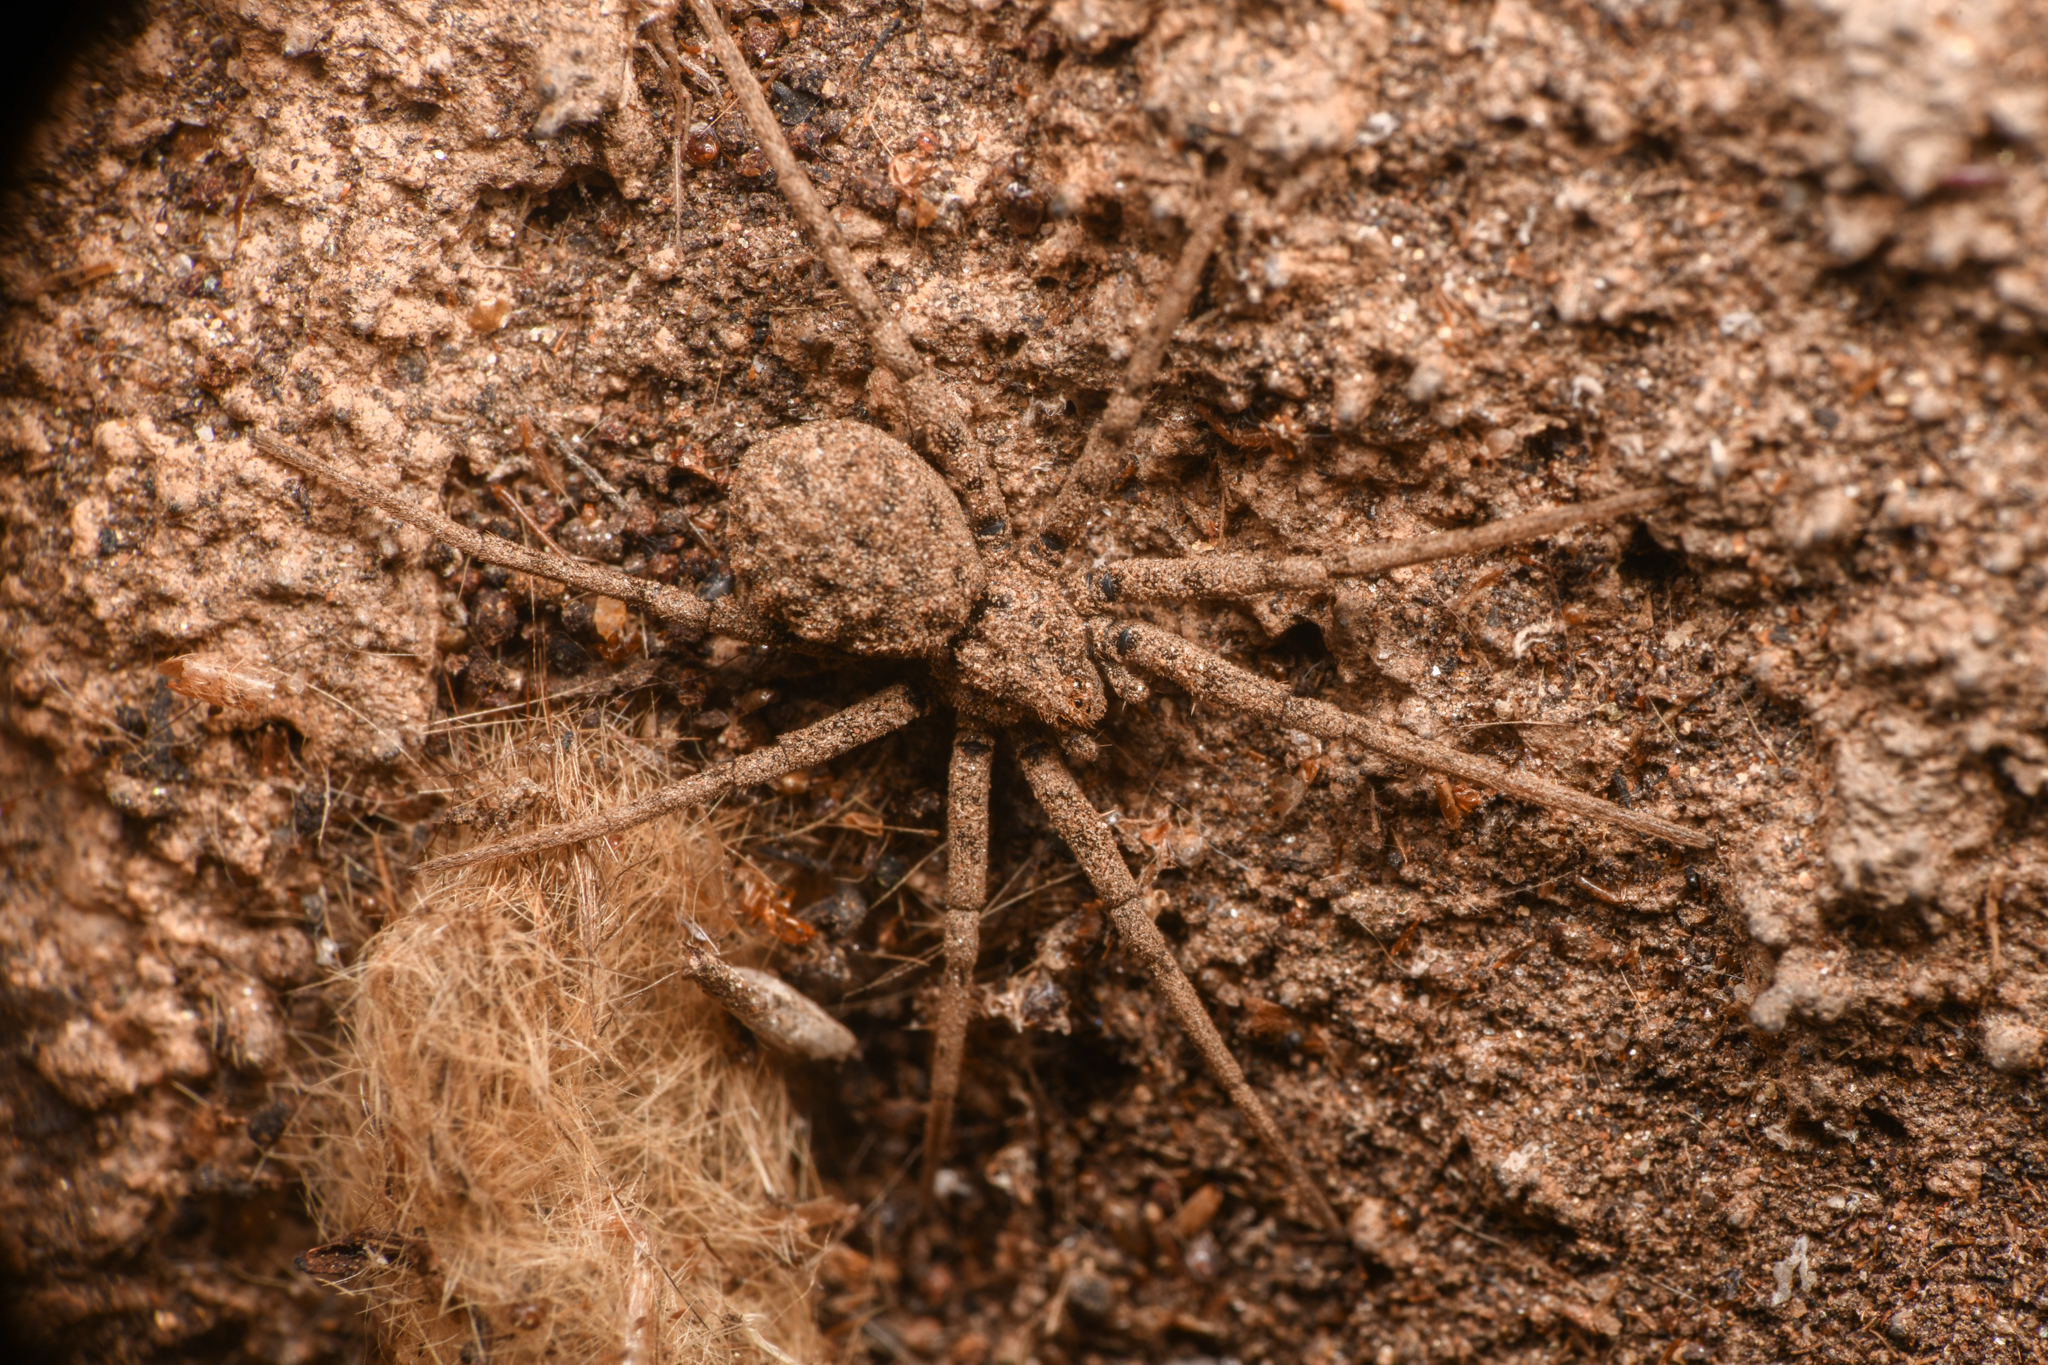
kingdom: Animalia
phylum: Arthropoda
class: Arachnida
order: Araneae
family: Homalonychidae
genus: Homalonychus
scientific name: Homalonychus theologus
